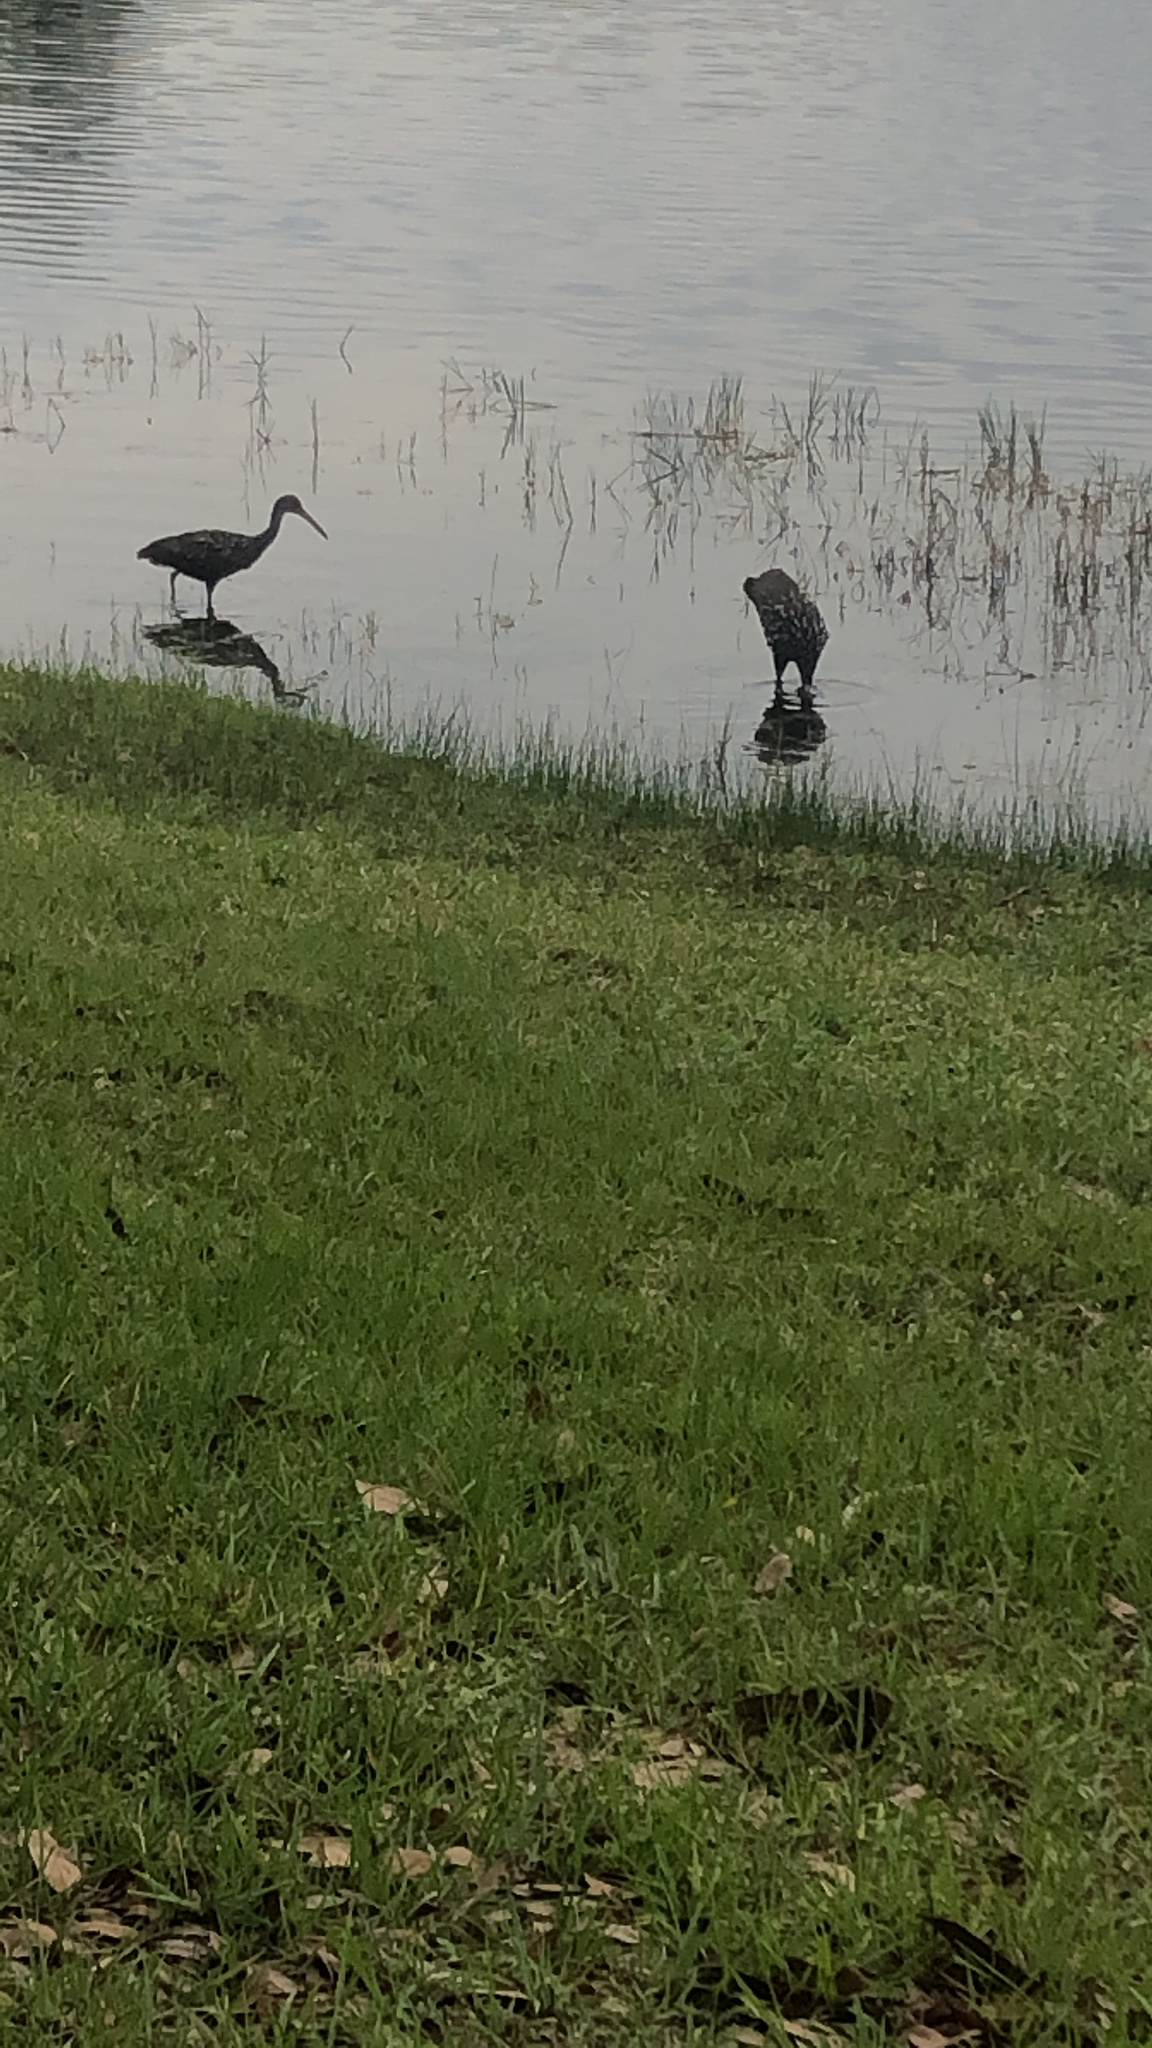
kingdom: Animalia
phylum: Chordata
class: Aves
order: Gruiformes
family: Aramidae
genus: Aramus
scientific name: Aramus guarauna
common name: Limpkin
